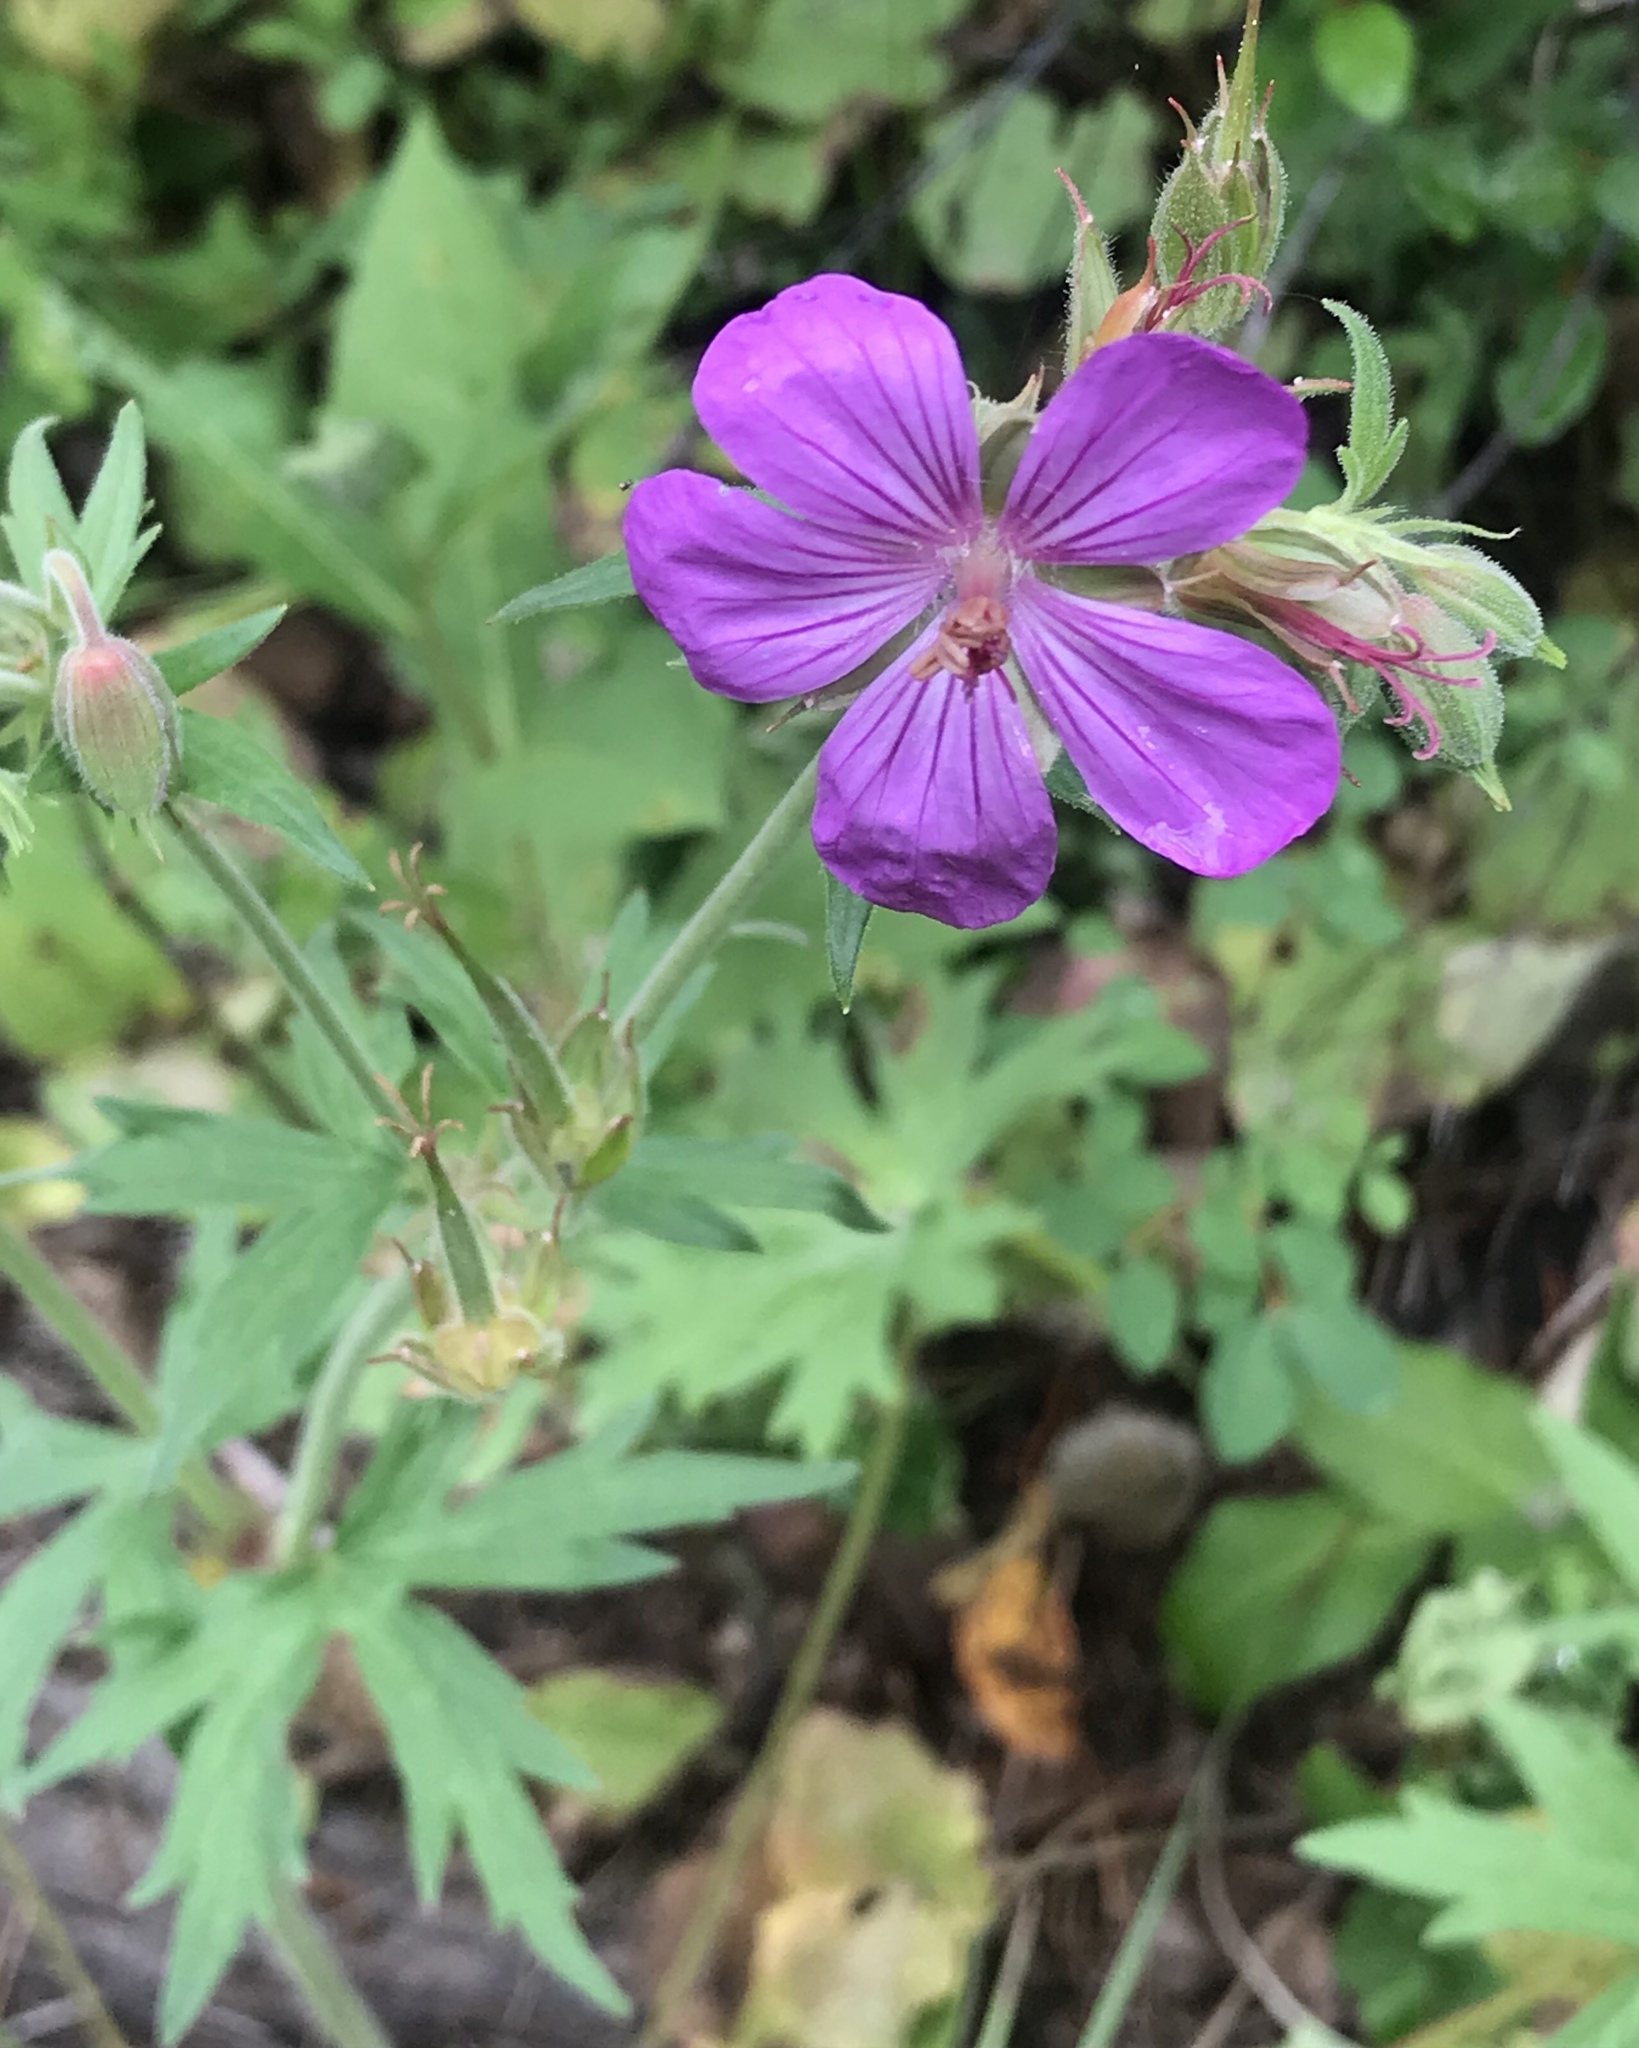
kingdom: Plantae
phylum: Tracheophyta
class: Magnoliopsida
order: Geraniales
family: Geraniaceae
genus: Geranium
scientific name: Geranium viscosissimum
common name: Purple geranium
